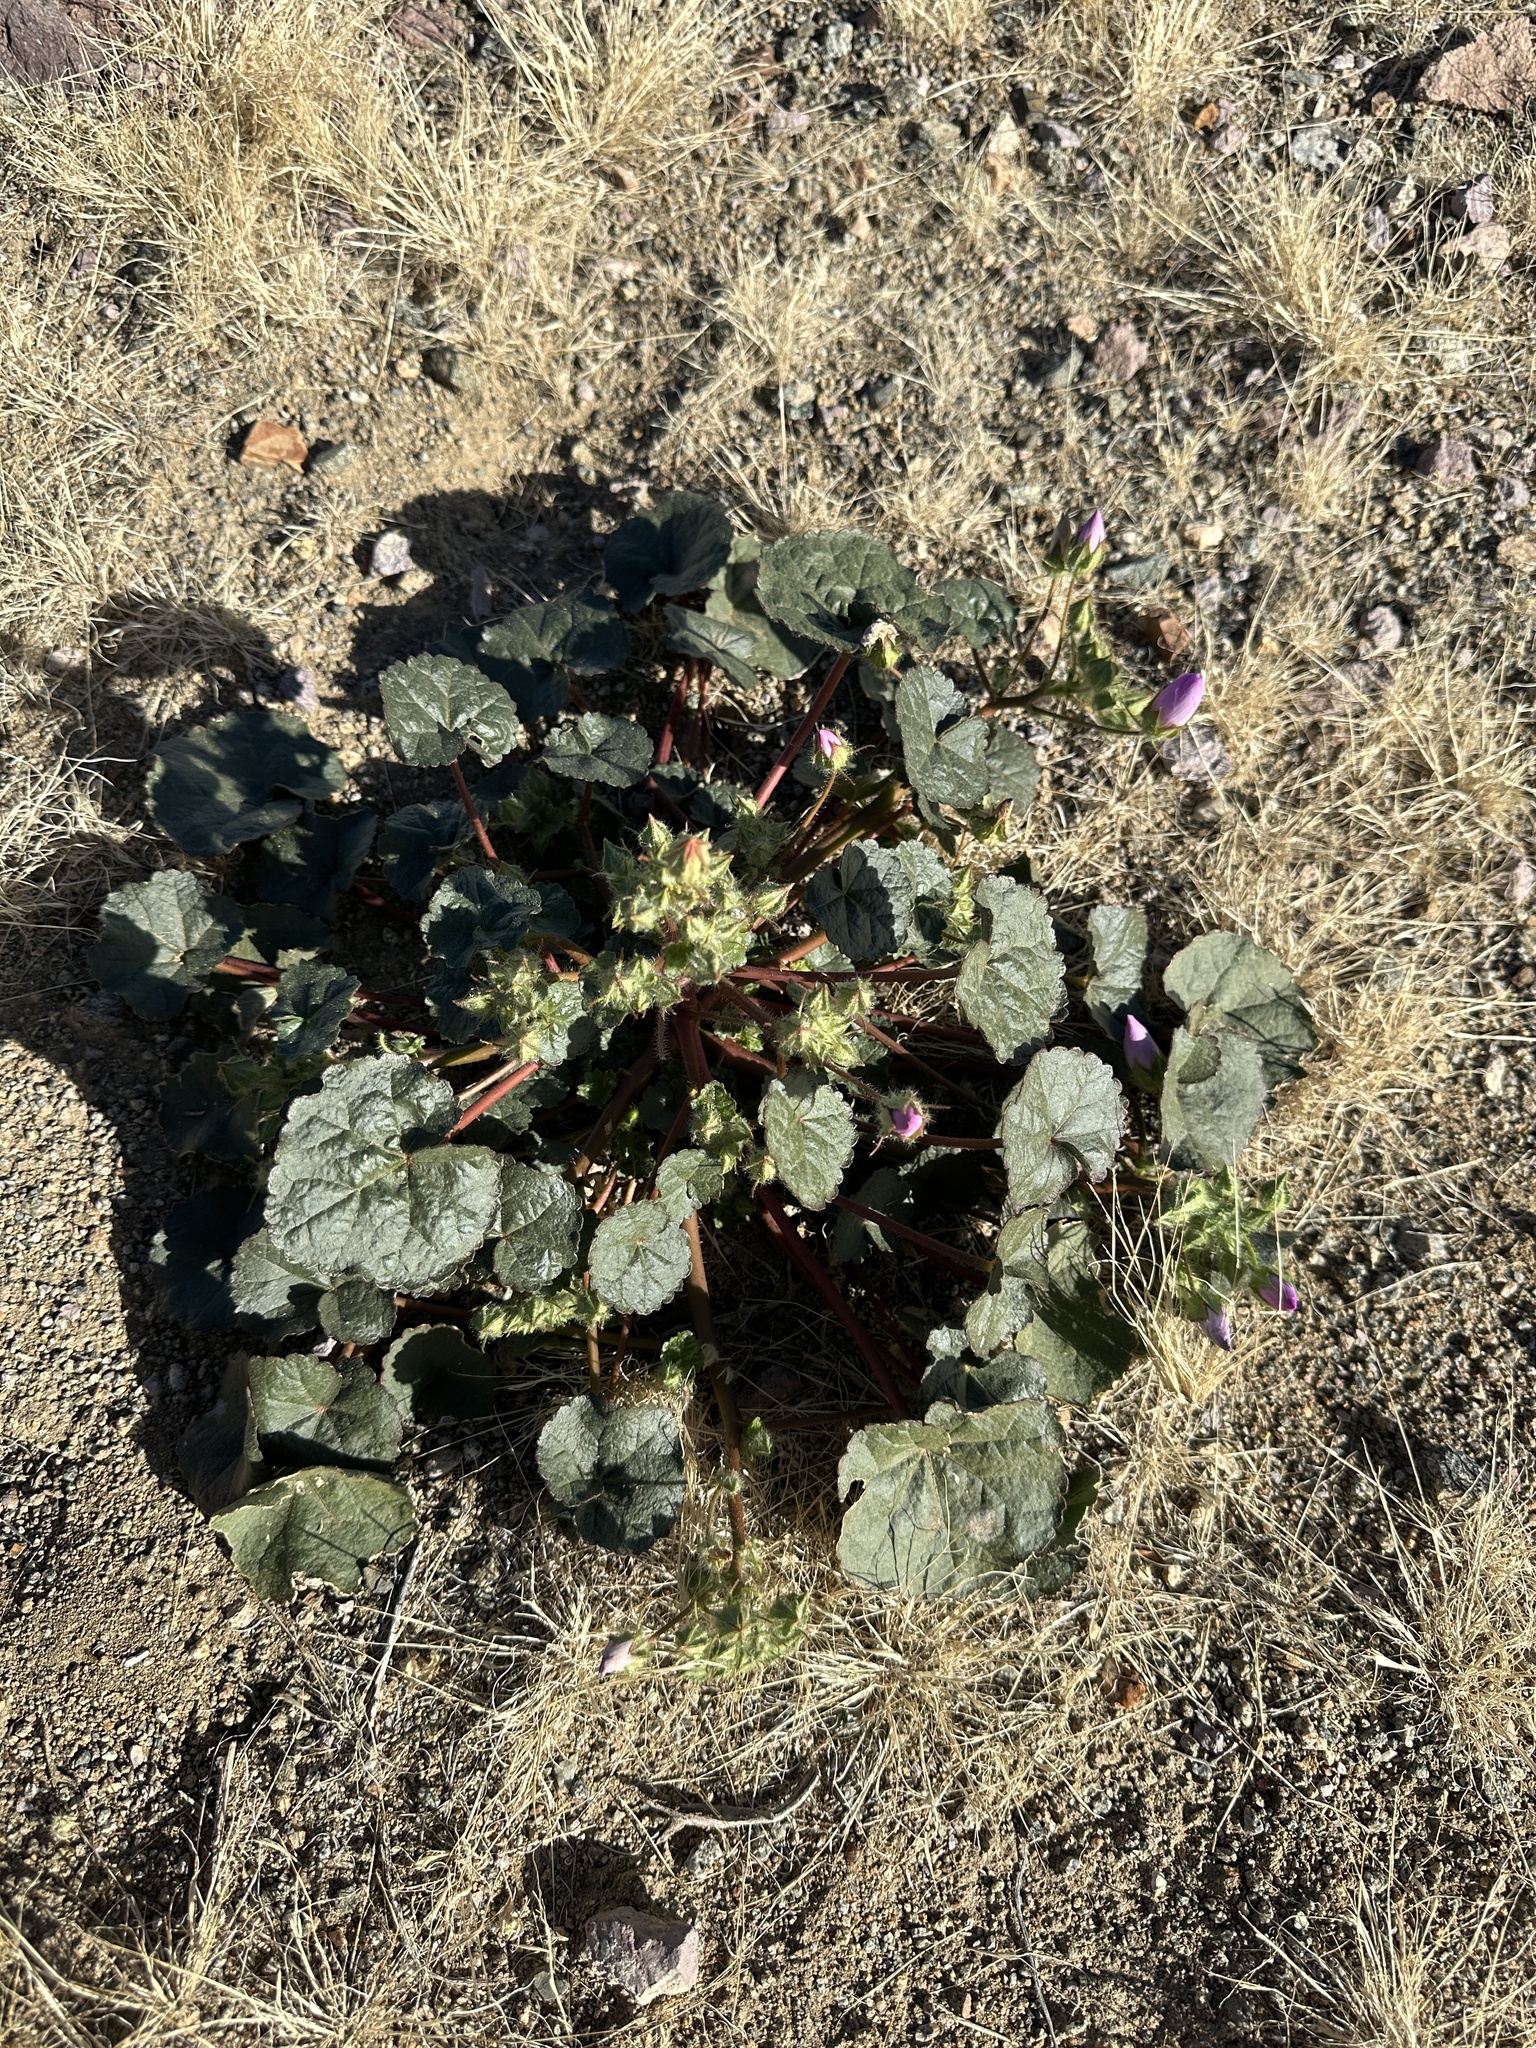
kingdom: Plantae
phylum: Tracheophyta
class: Magnoliopsida
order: Malvales
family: Malvaceae
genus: Eremalche
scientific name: Eremalche rotundifolia
